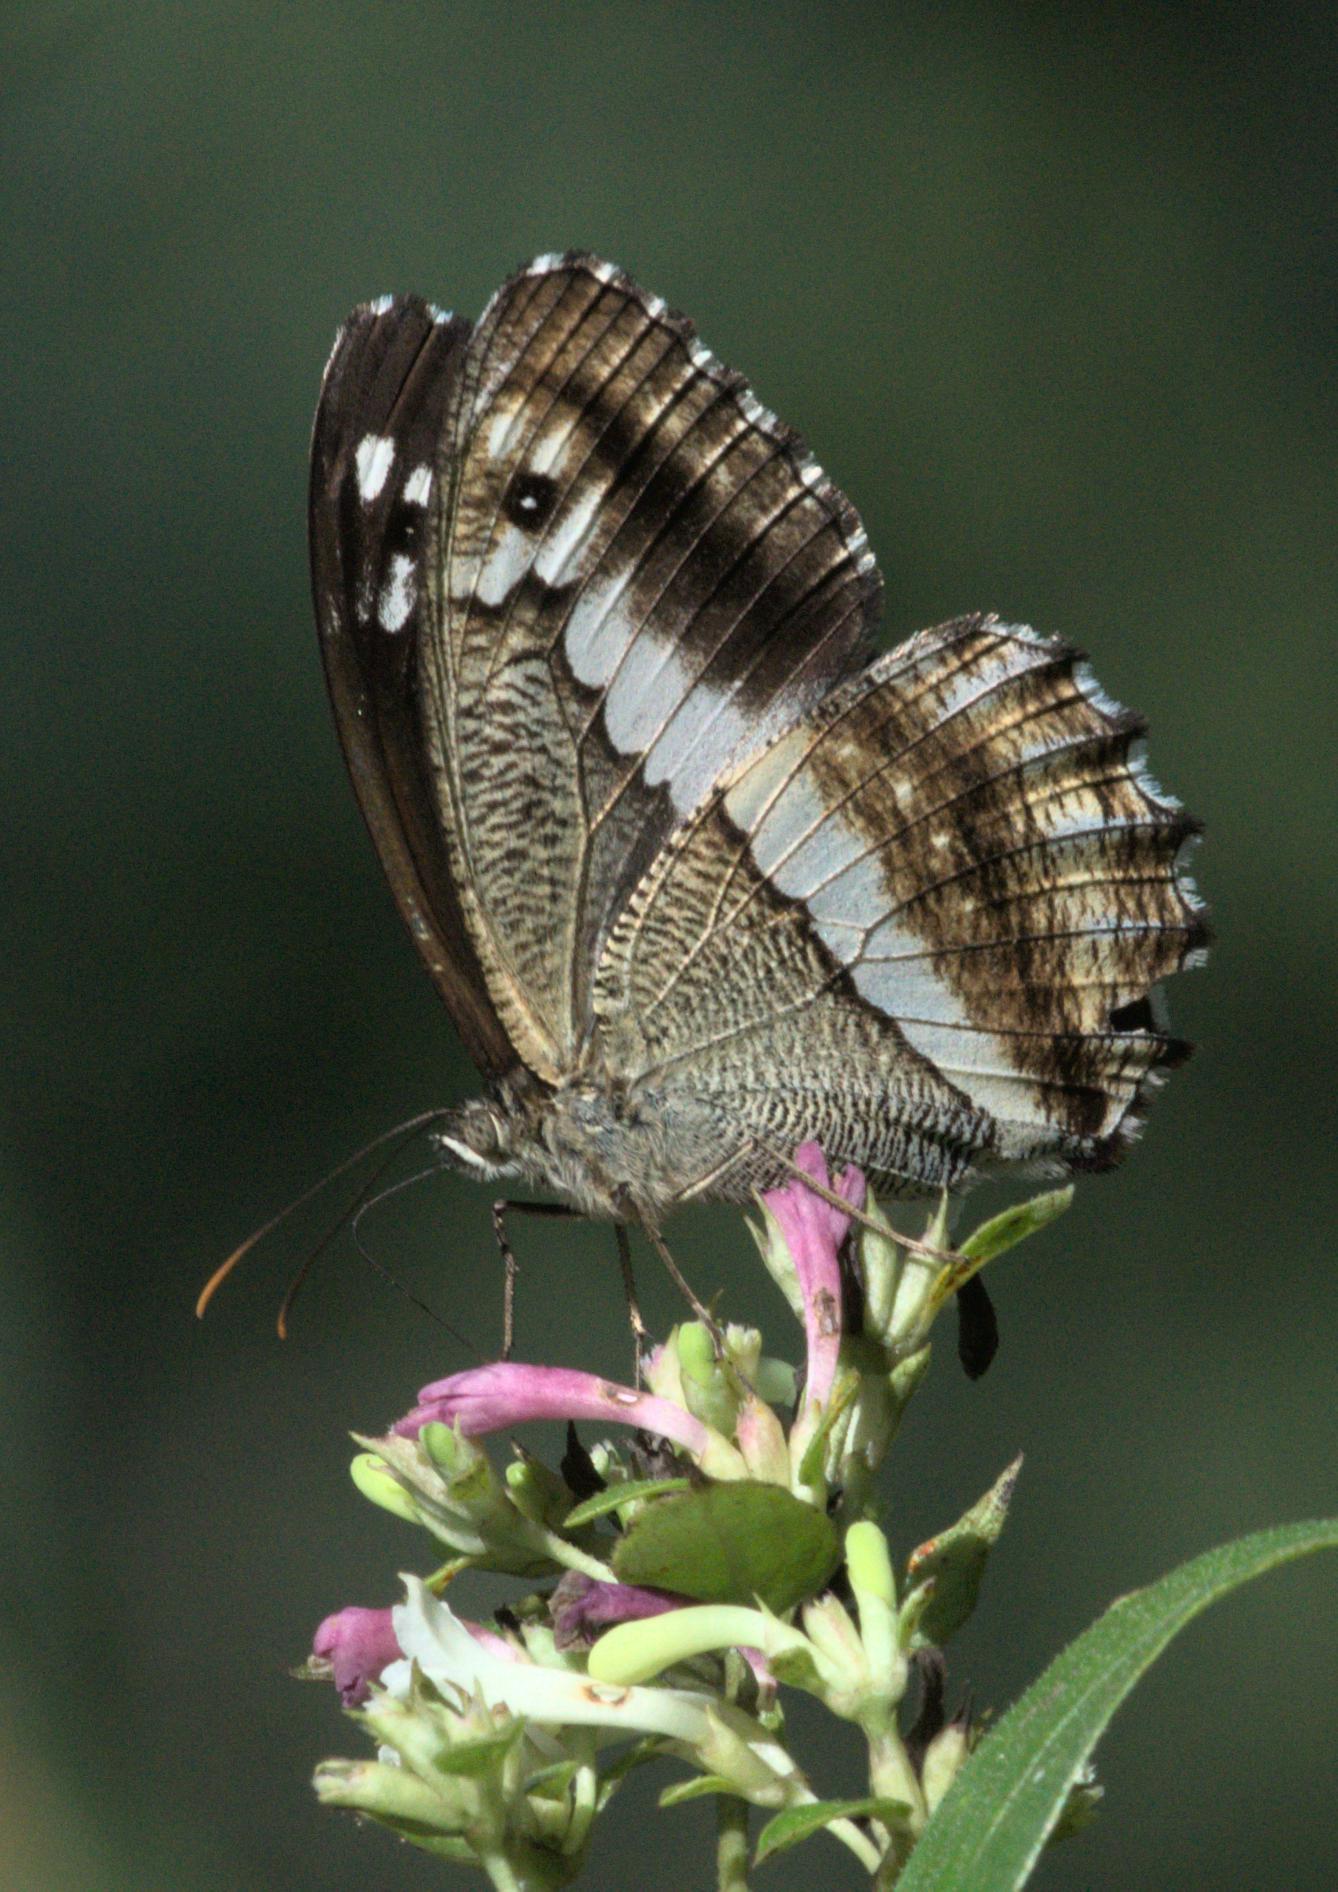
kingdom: Animalia
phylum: Arthropoda
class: Insecta
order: Lepidoptera
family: Nymphalidae
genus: Satyrus
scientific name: Satyrus
